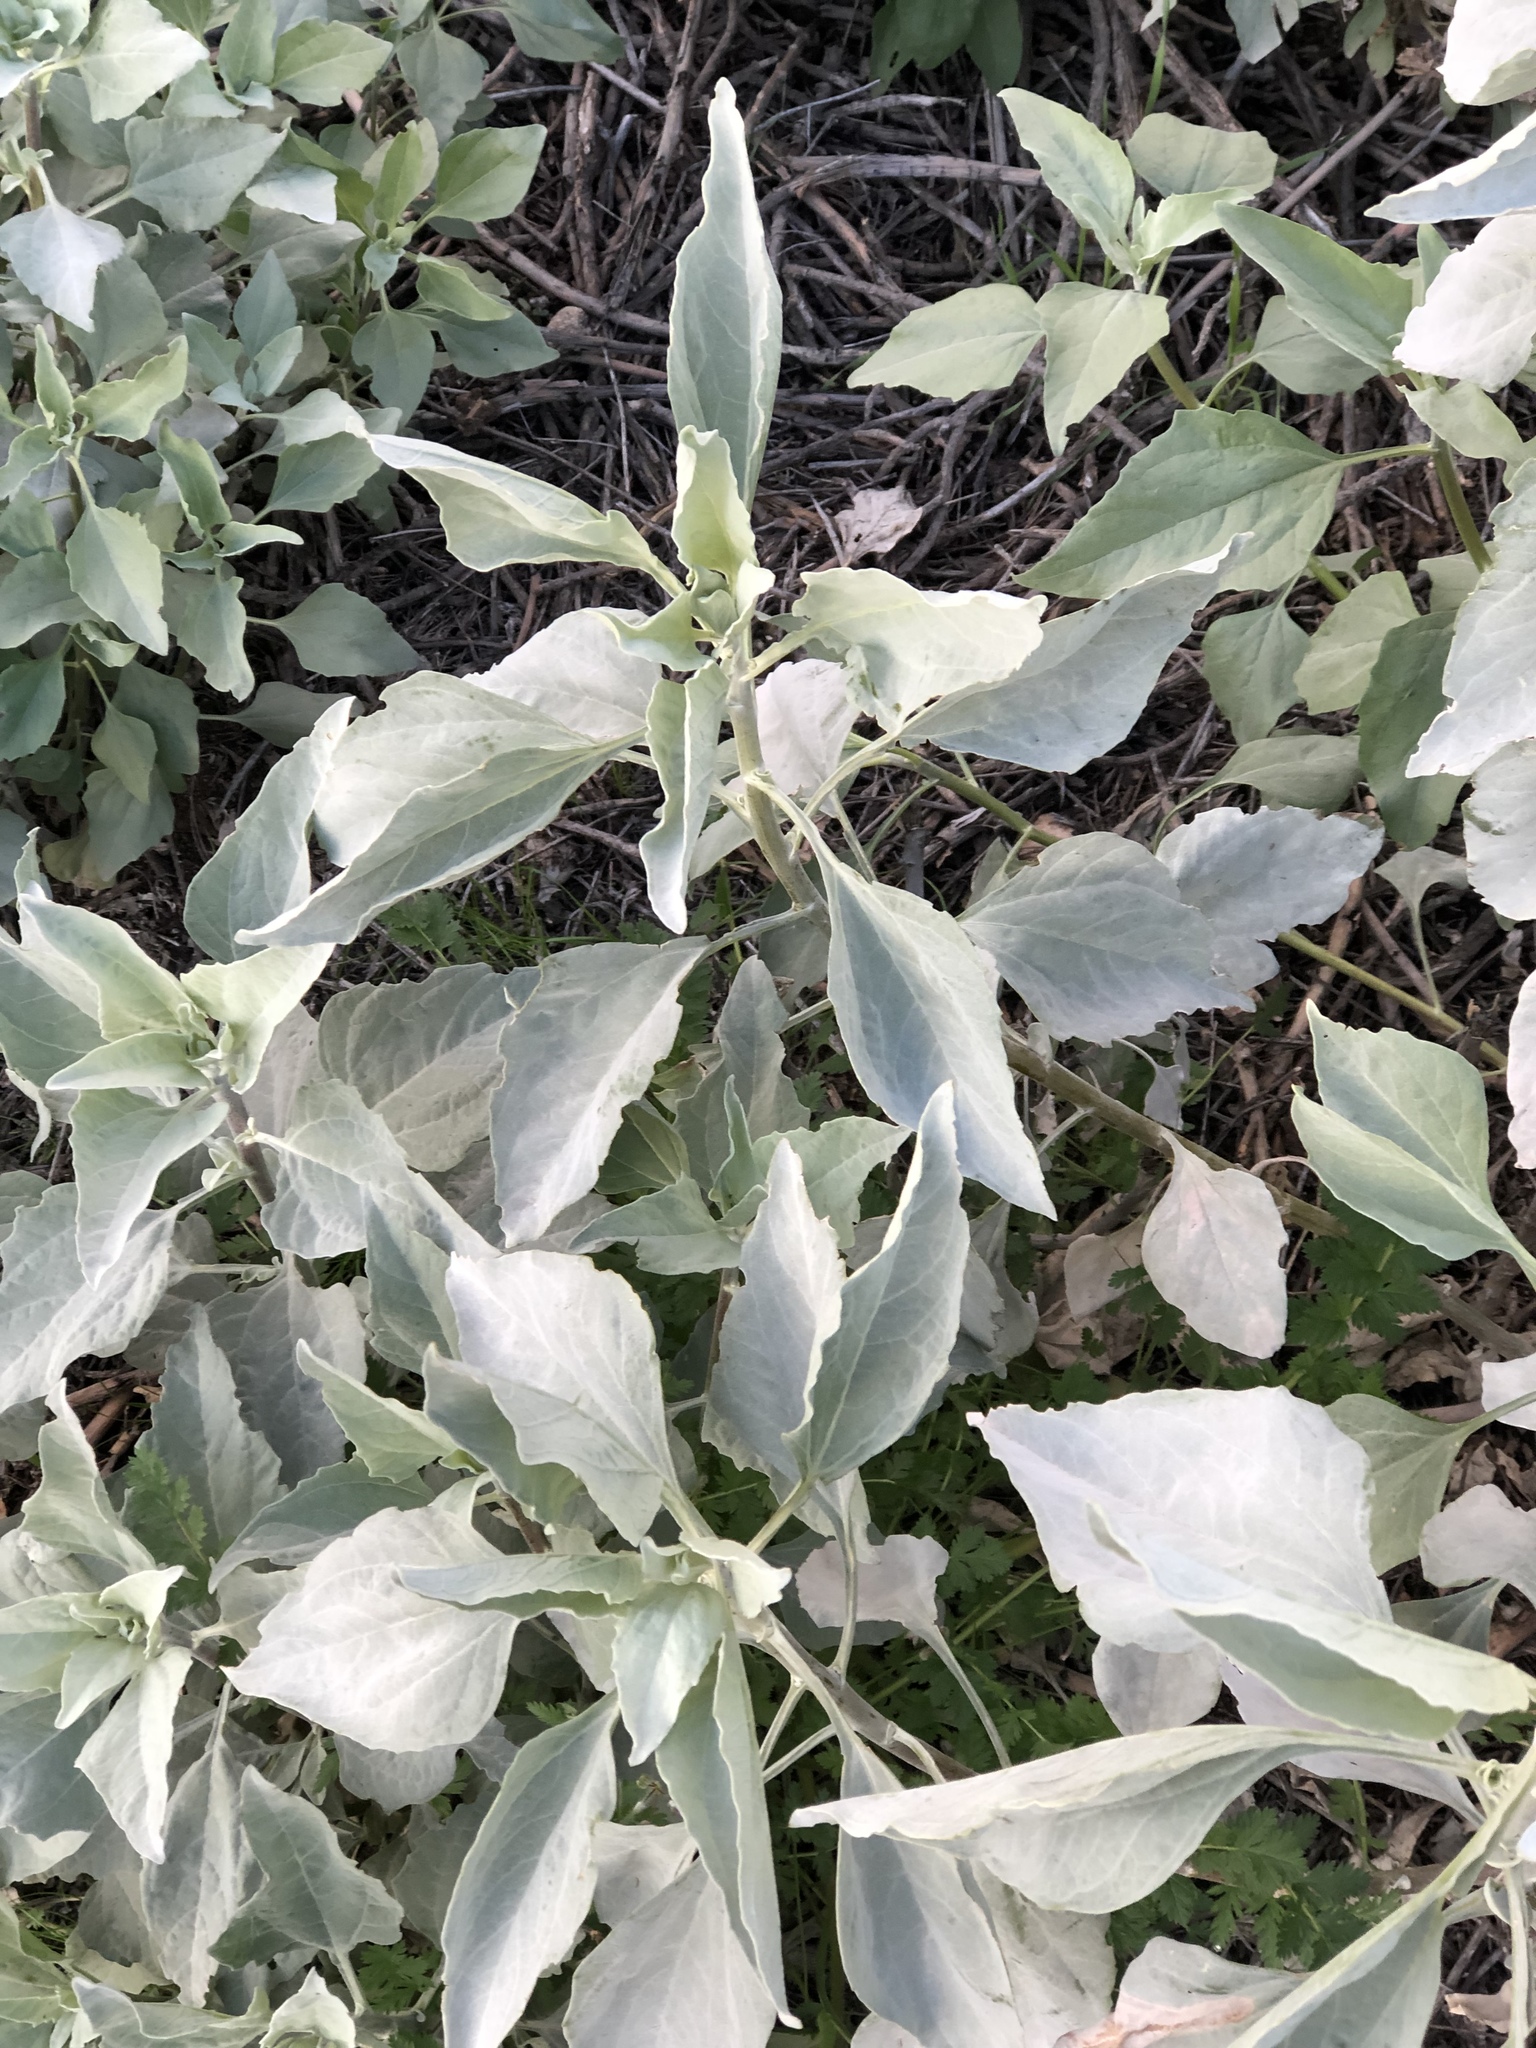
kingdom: Plantae
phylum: Tracheophyta
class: Magnoliopsida
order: Asterales
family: Asteraceae
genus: Encelia
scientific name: Encelia farinosa
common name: Brittlebush
